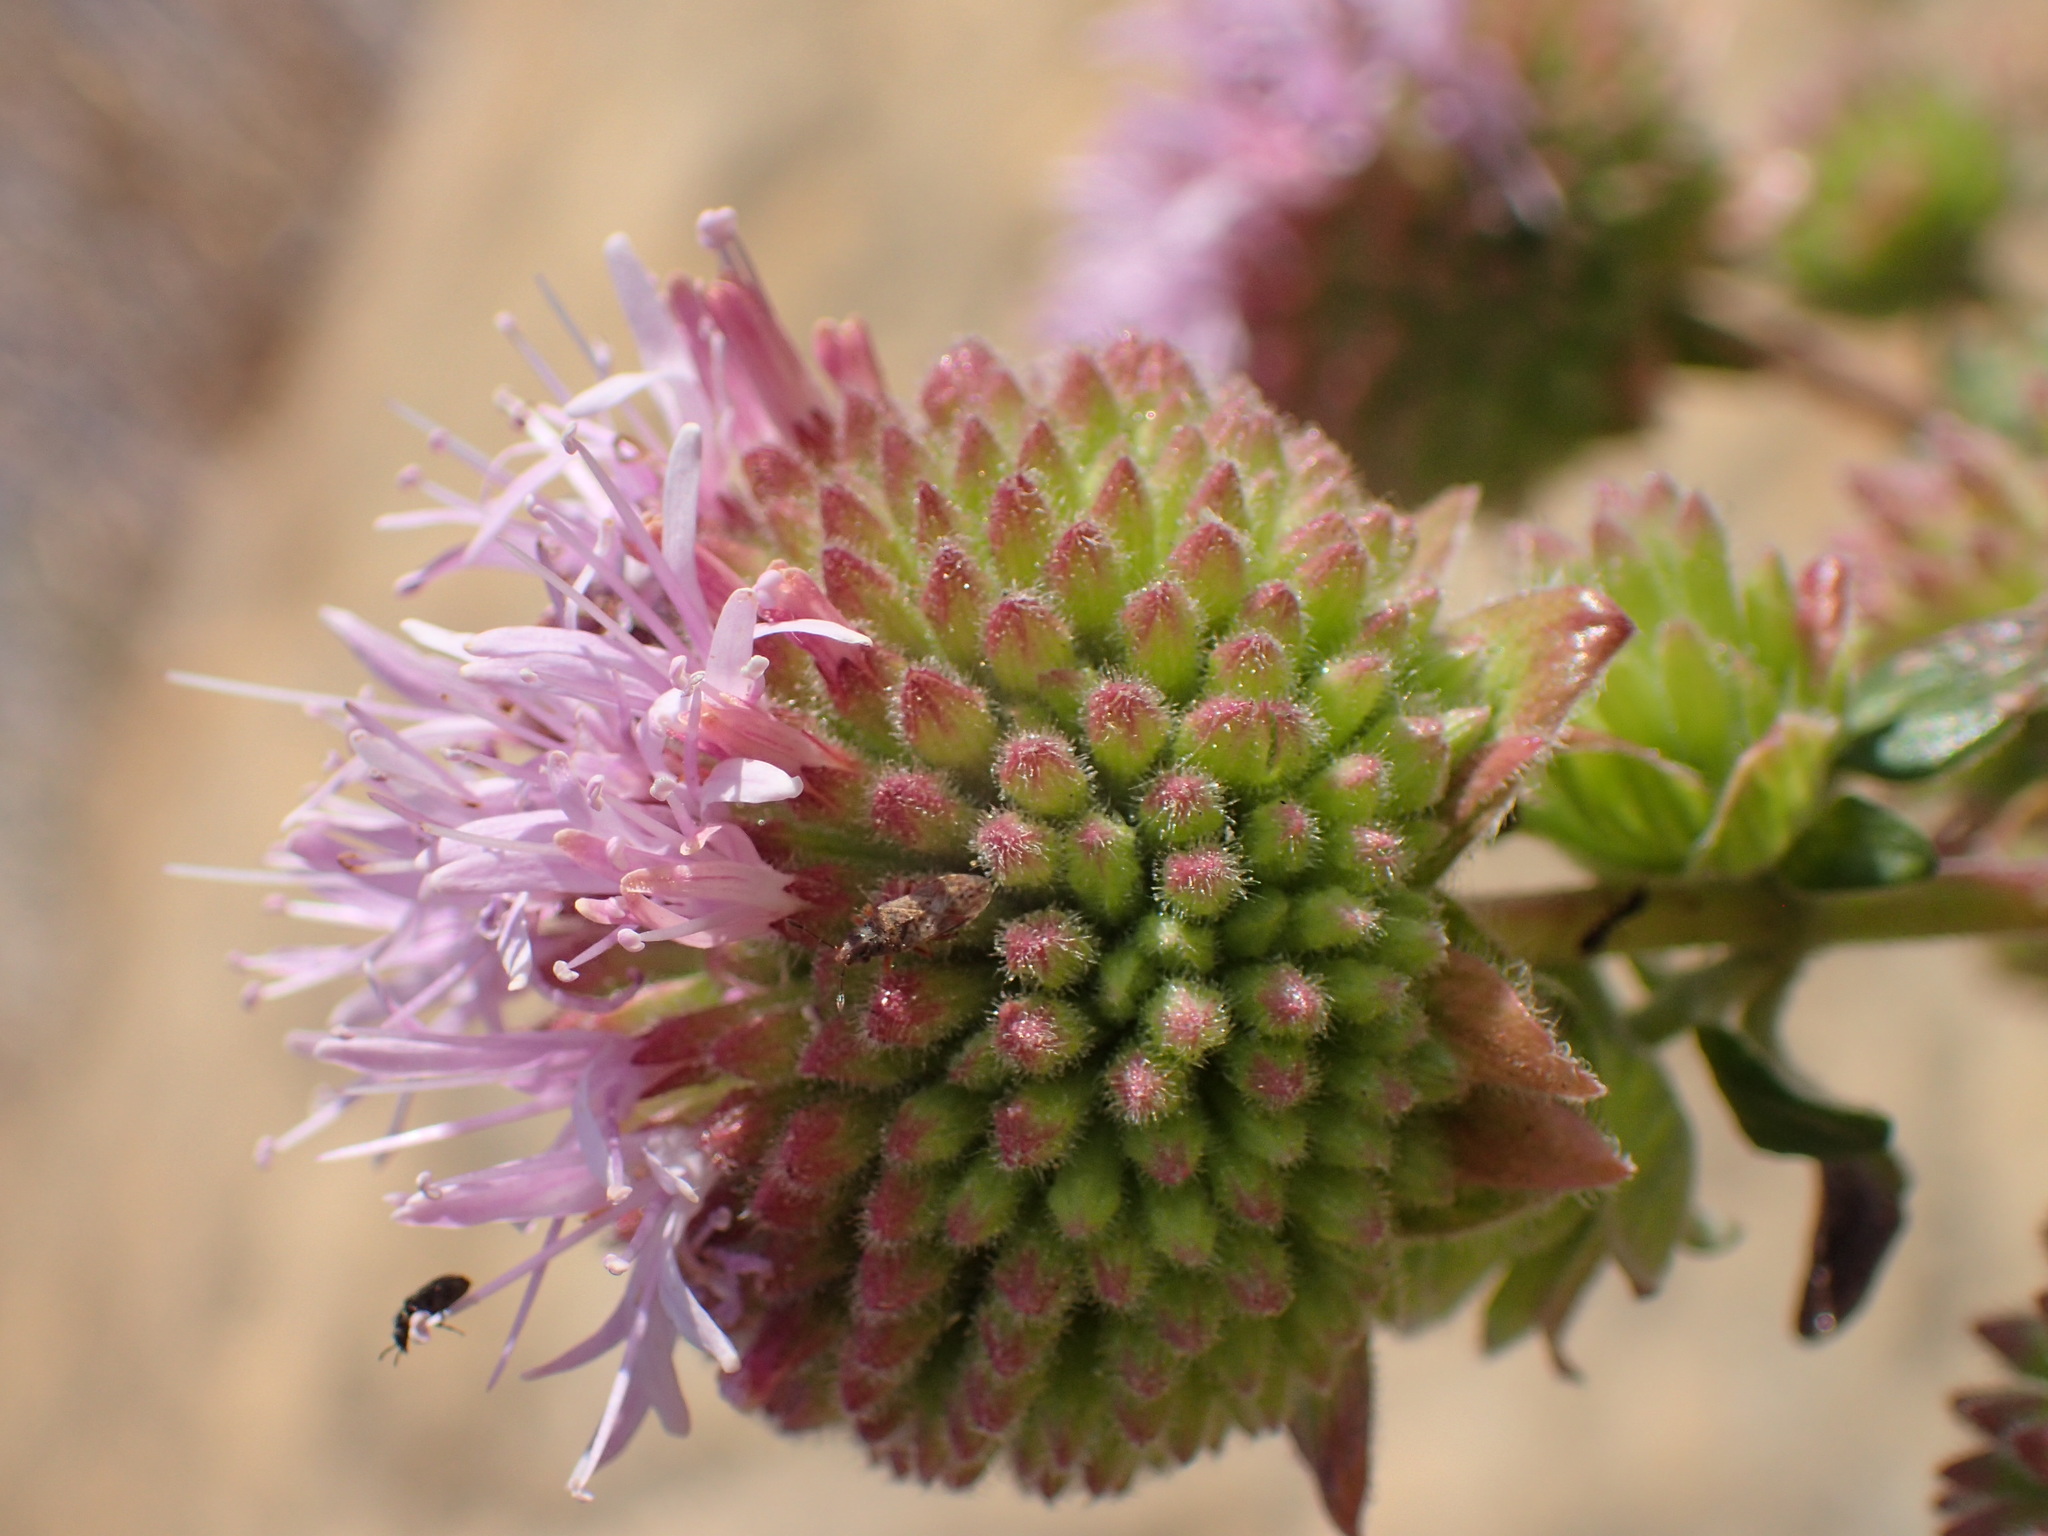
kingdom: Plantae
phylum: Tracheophyta
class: Magnoliopsida
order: Lamiales
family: Lamiaceae
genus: Monardella
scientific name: Monardella hypoleuca
